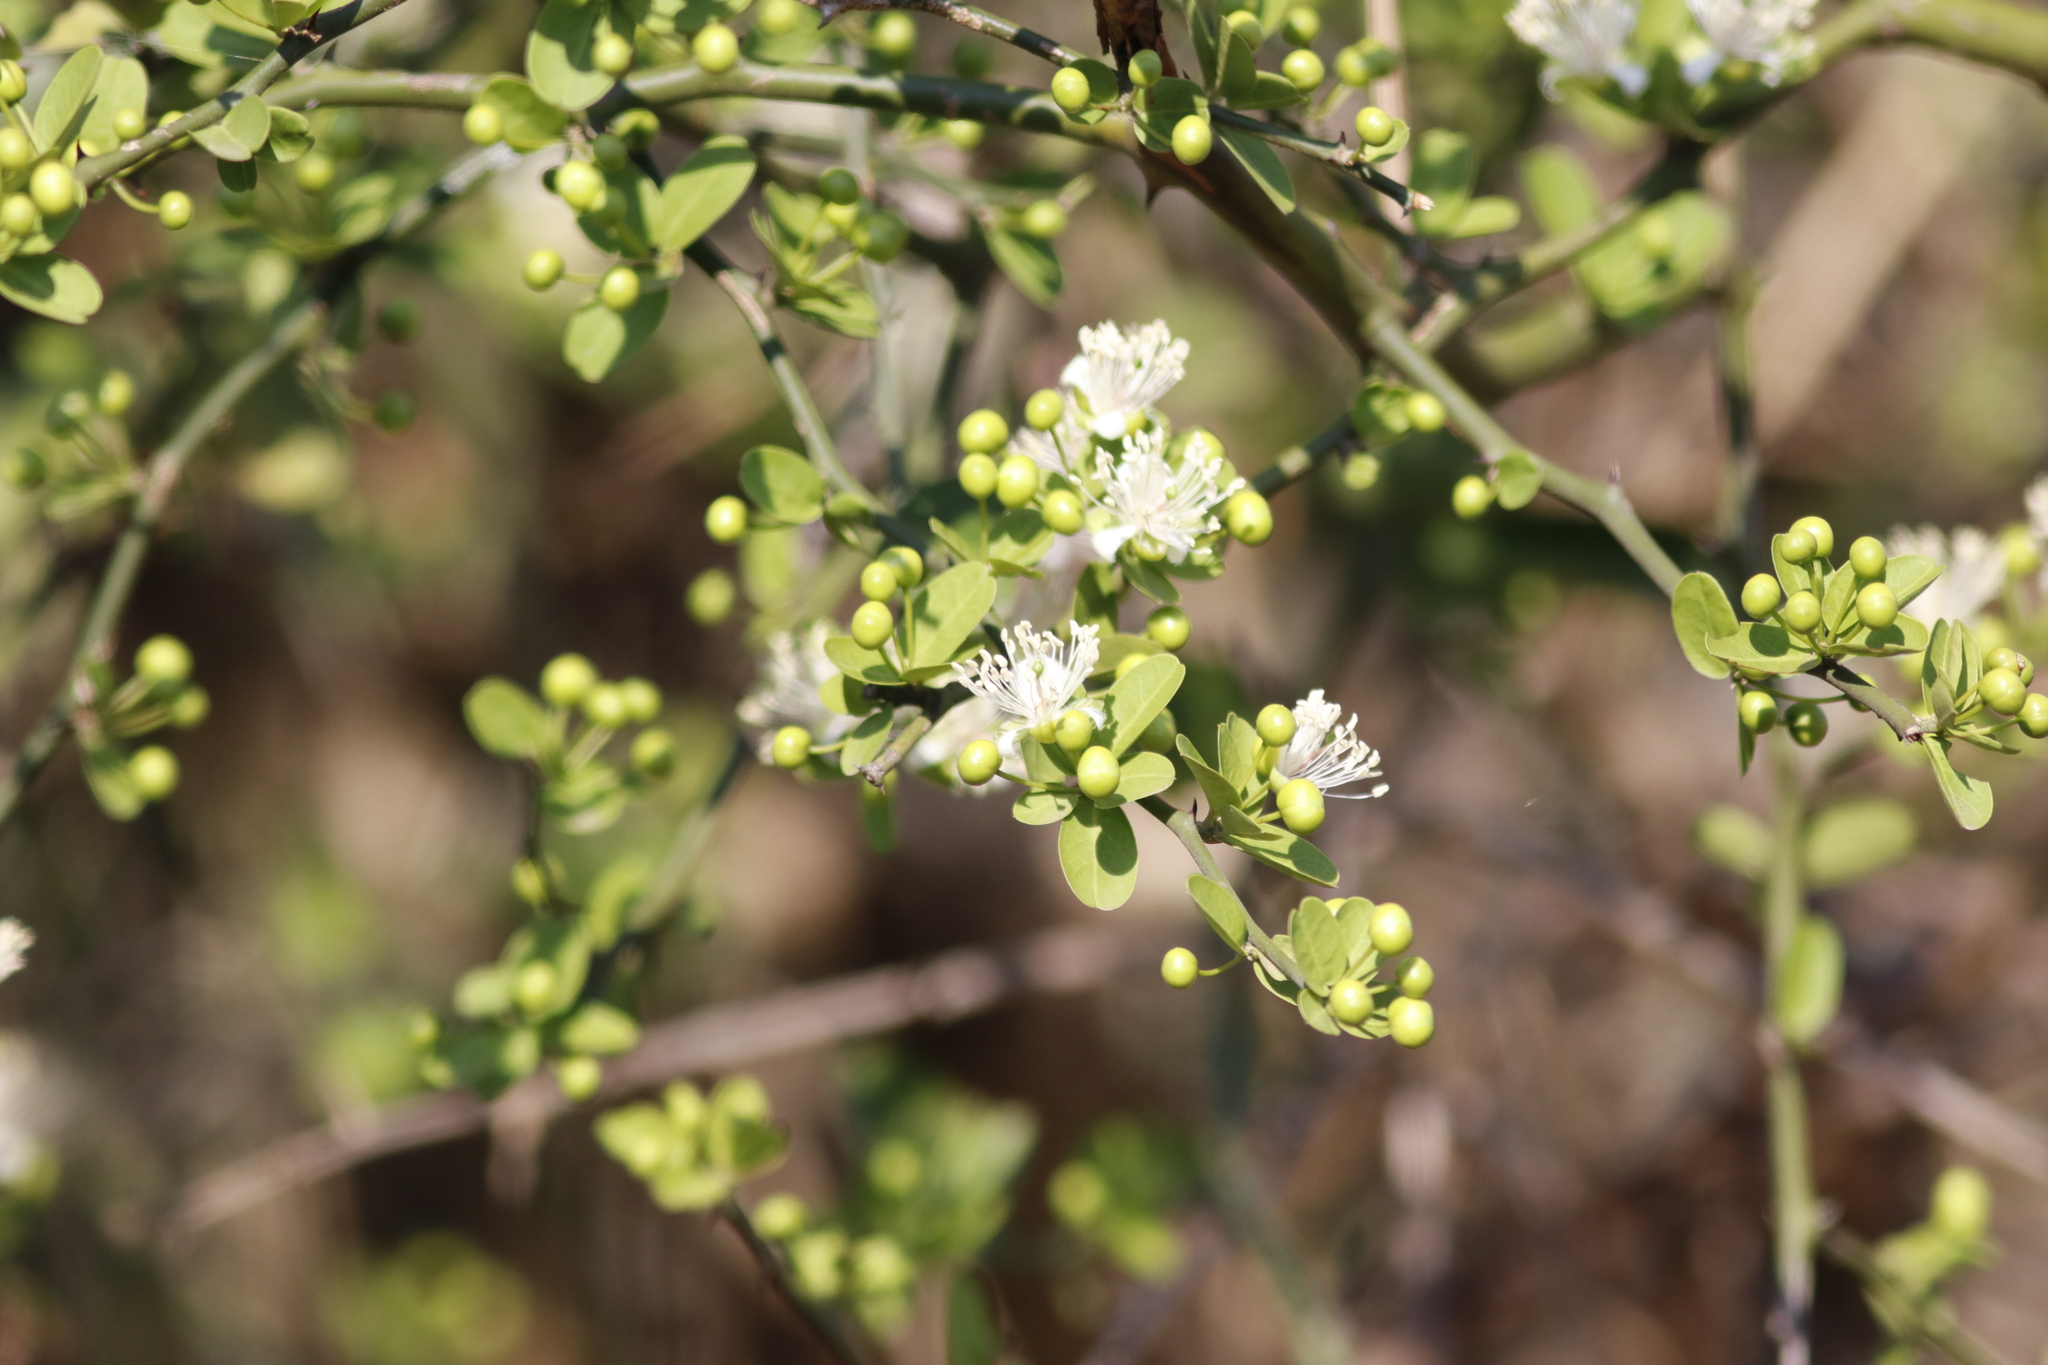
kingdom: Plantae
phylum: Tracheophyta
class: Magnoliopsida
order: Brassicales
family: Capparaceae
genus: Boscia
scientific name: Boscia foetida
